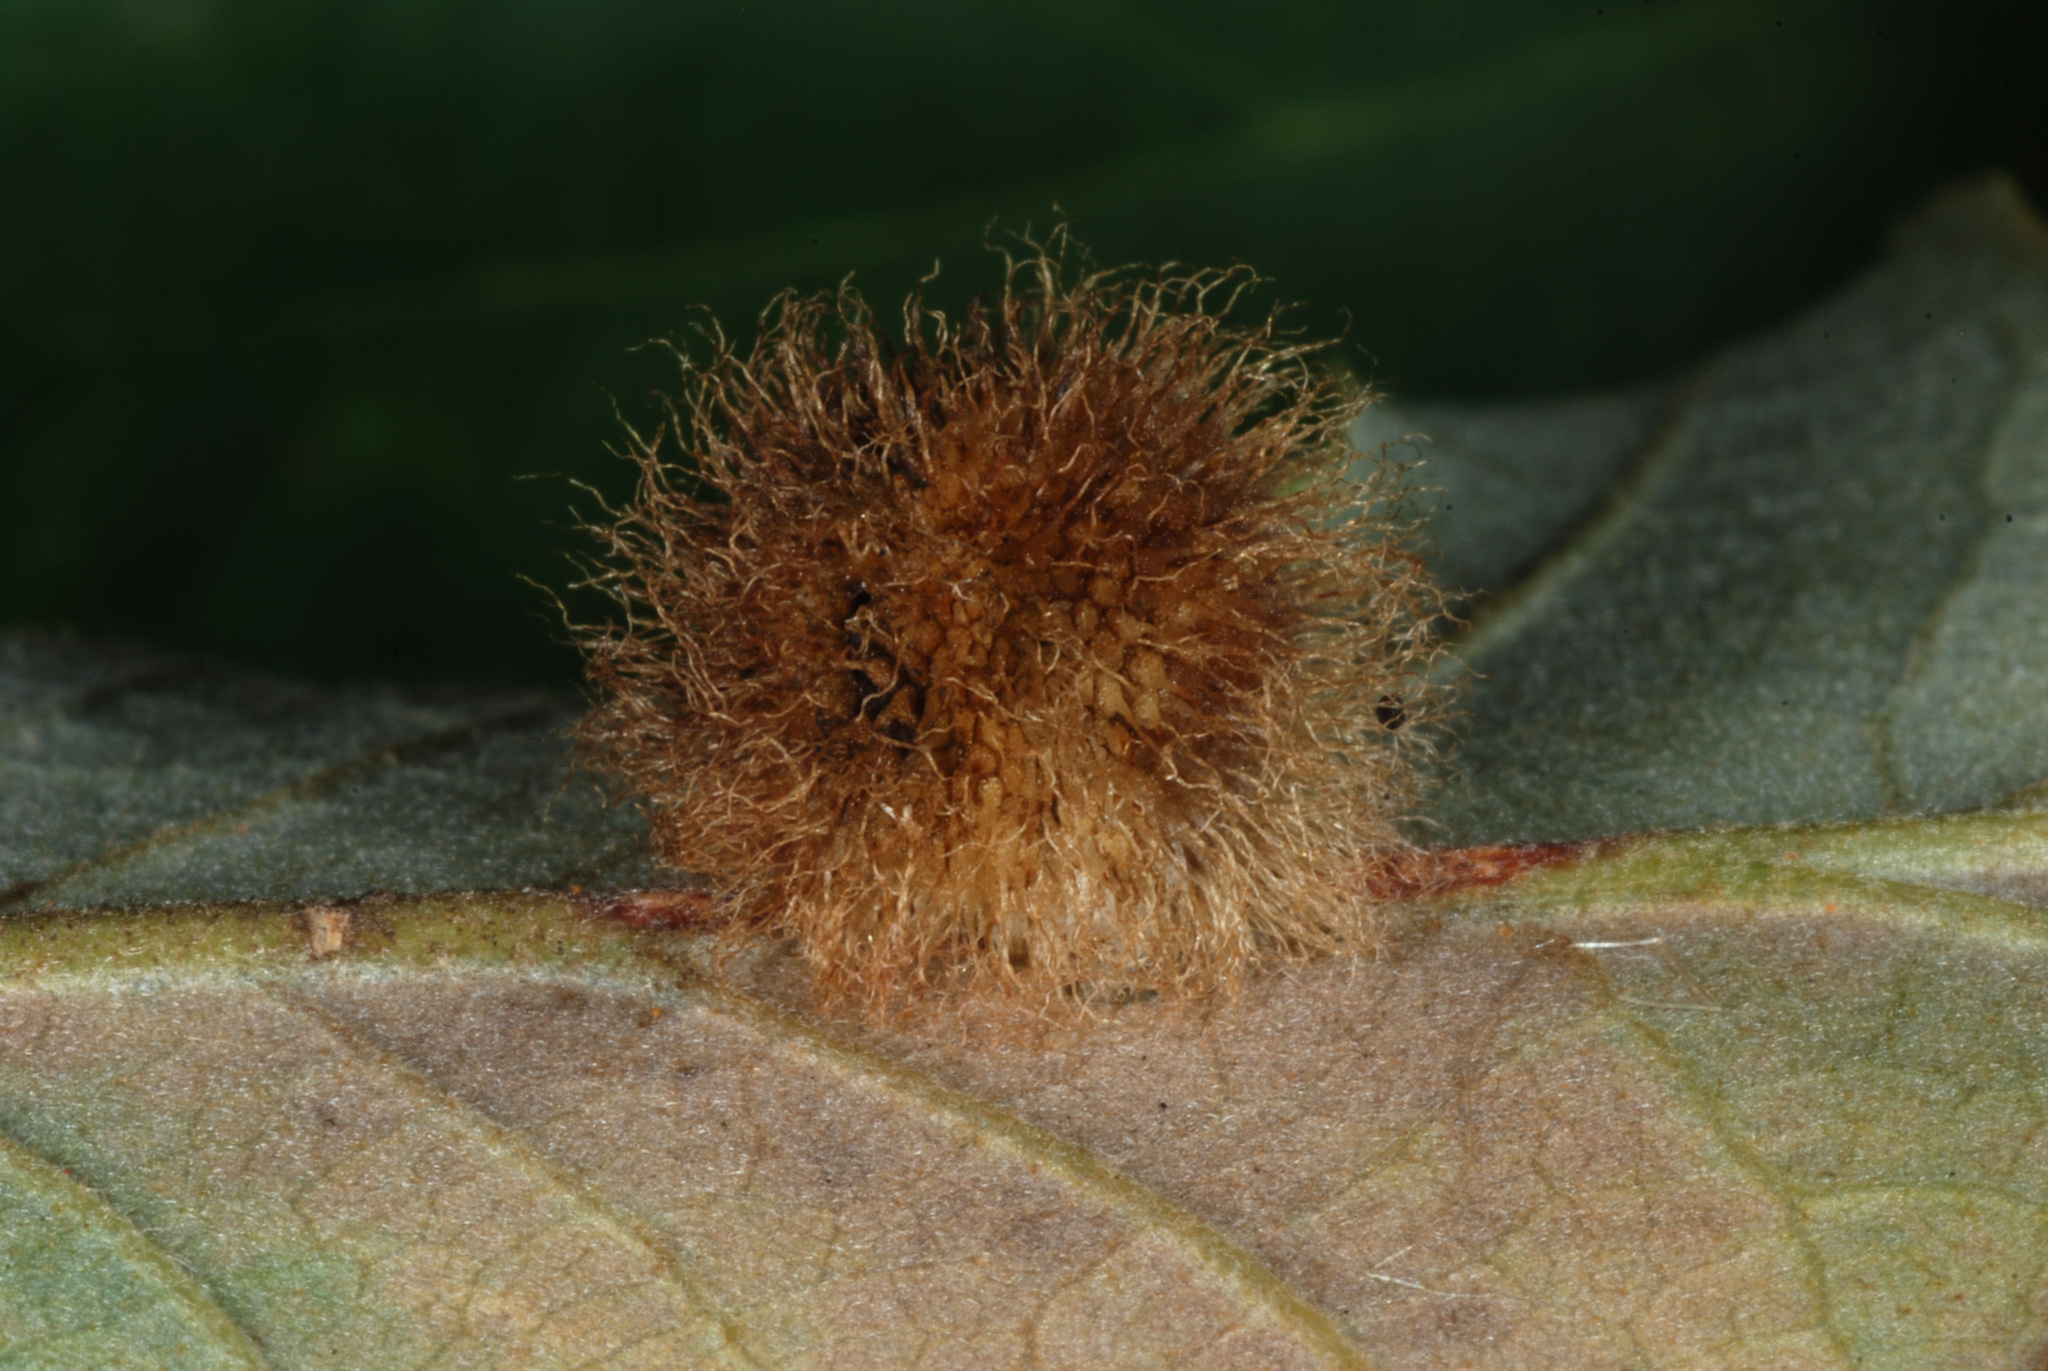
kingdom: Animalia
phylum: Arthropoda
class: Insecta
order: Hymenoptera
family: Cynipidae
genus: Acraspis
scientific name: Acraspis villosa
